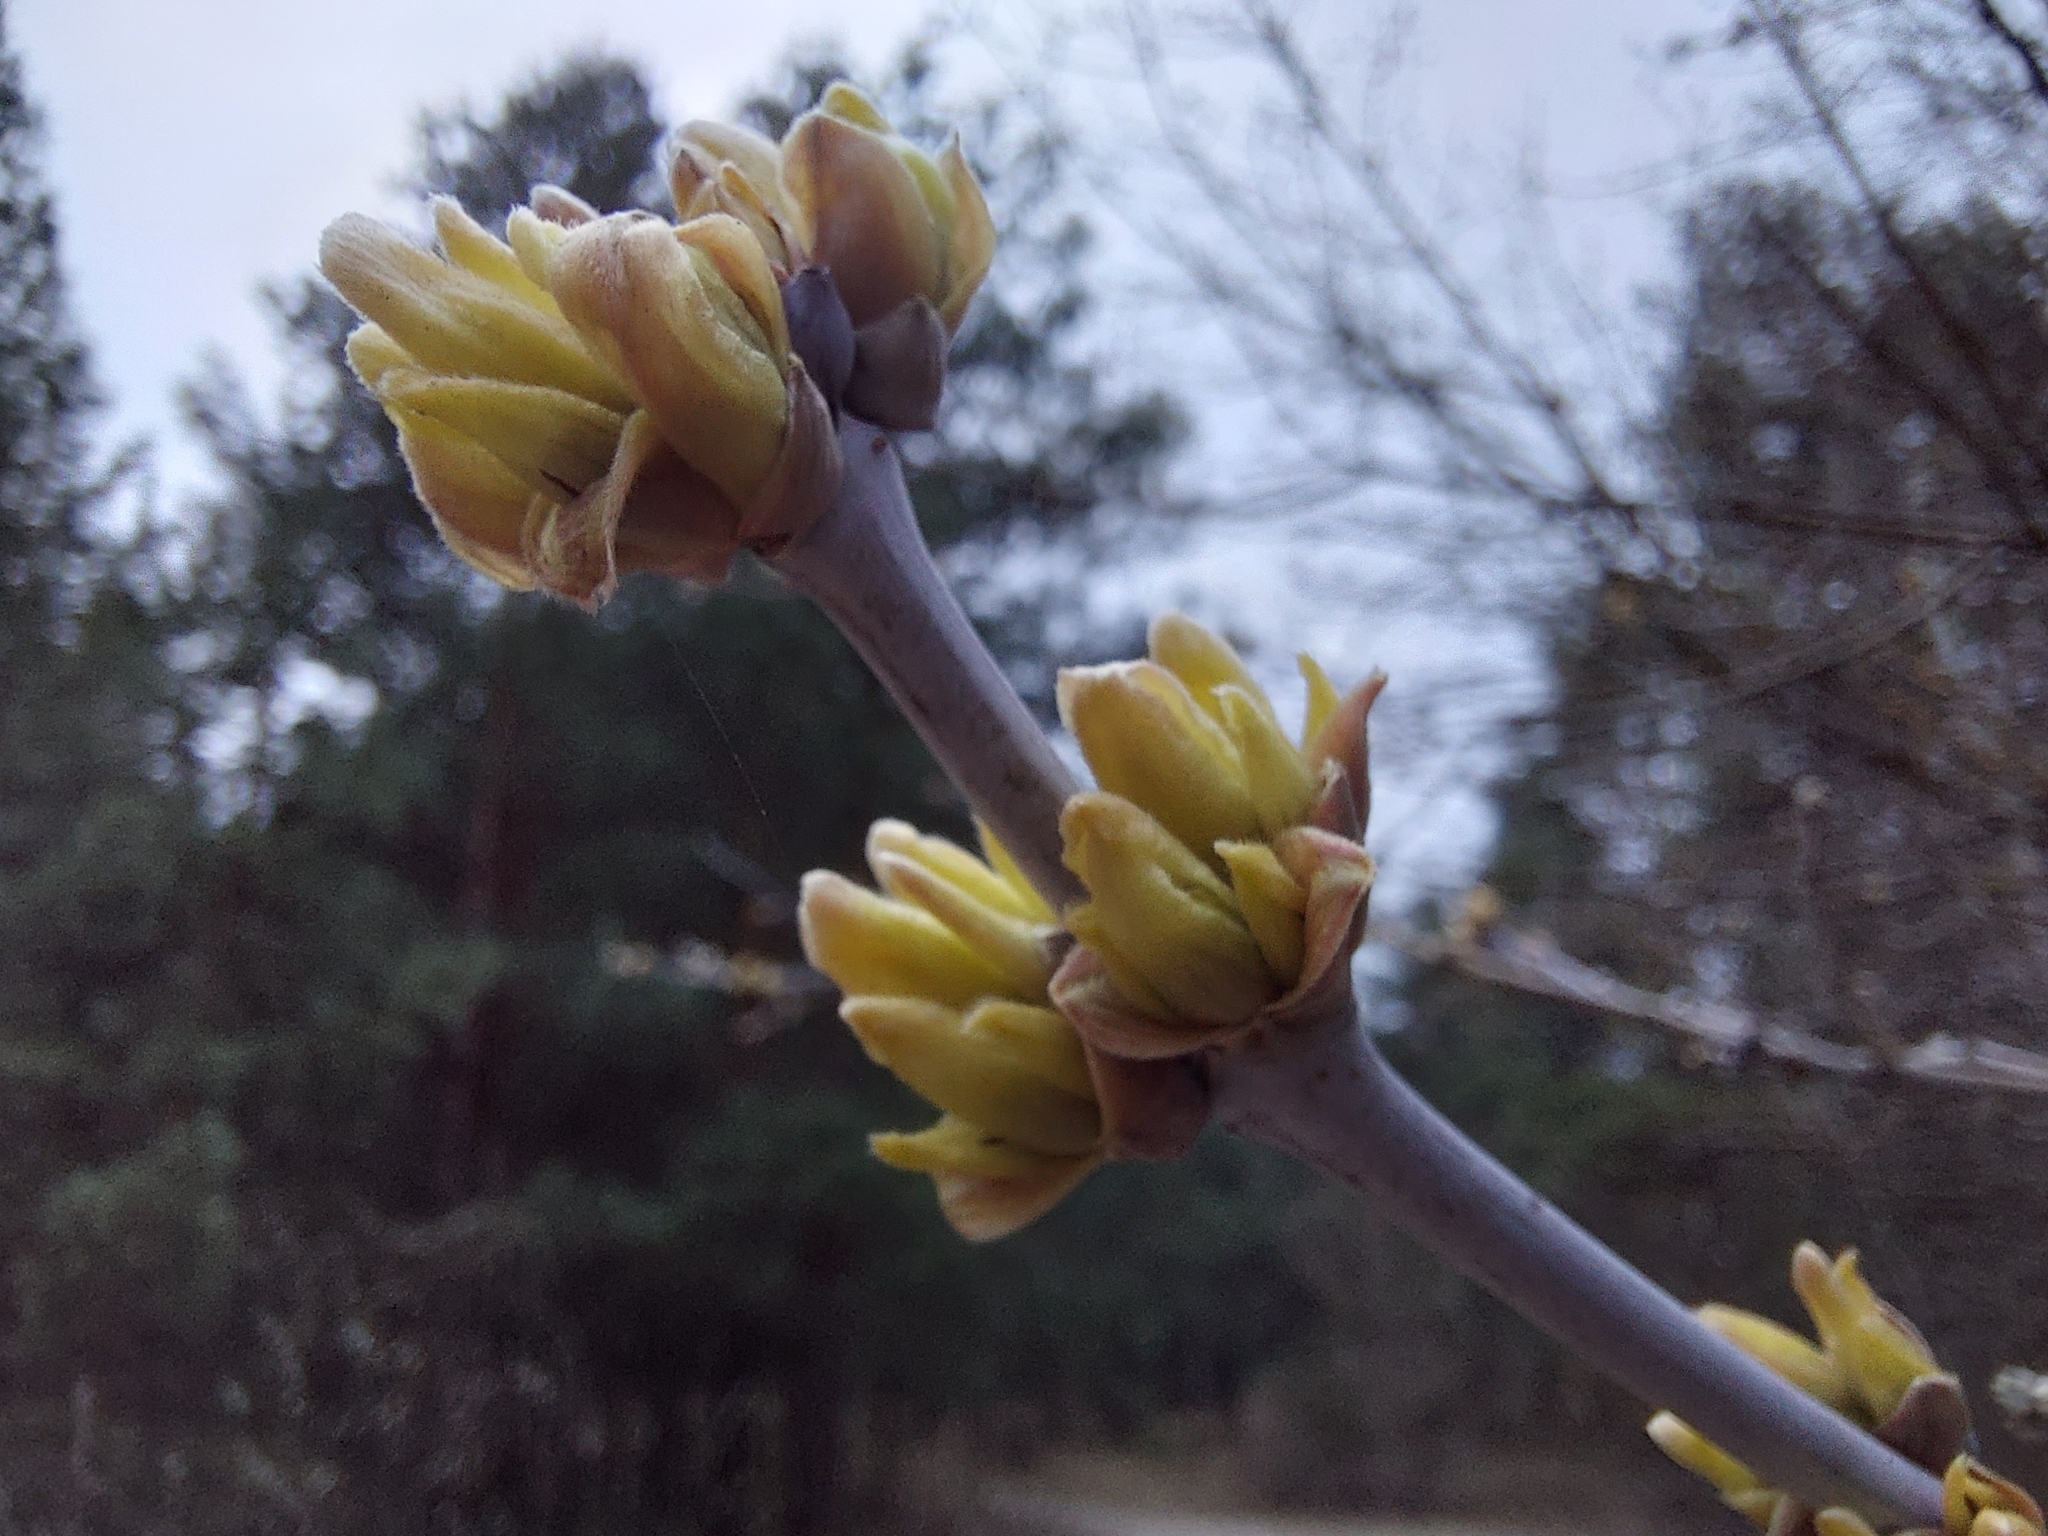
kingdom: Plantae
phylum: Tracheophyta
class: Magnoliopsida
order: Sapindales
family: Sapindaceae
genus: Acer
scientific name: Acer negundo
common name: Ashleaf maple
